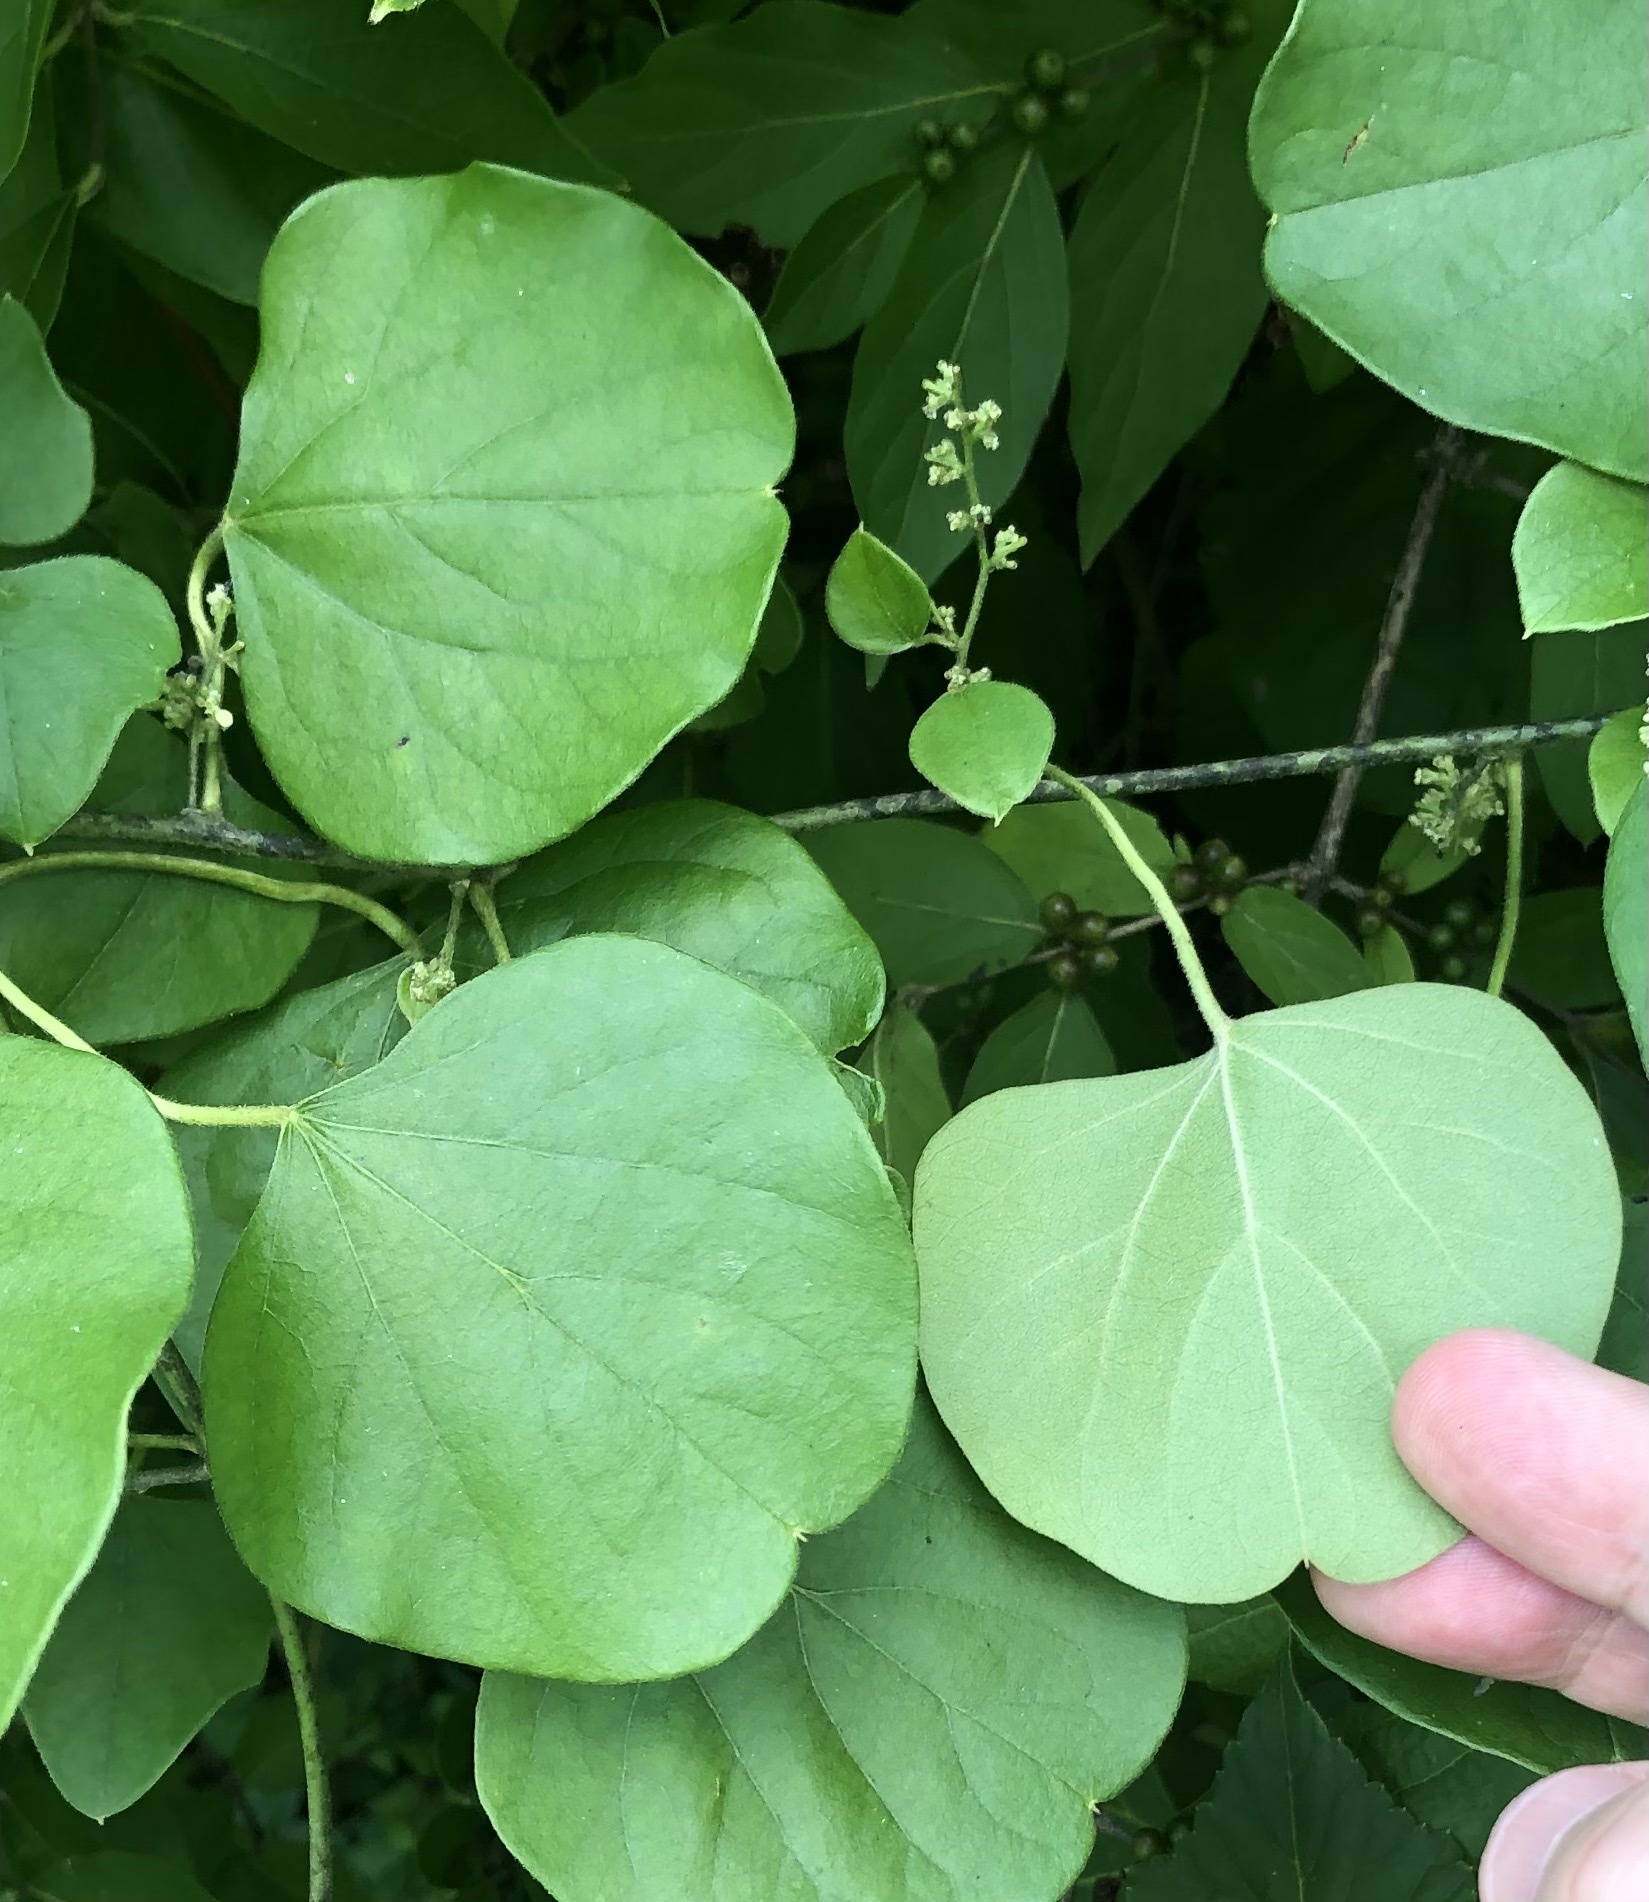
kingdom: Plantae
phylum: Tracheophyta
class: Magnoliopsida
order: Ranunculales
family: Menispermaceae
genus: Cocculus
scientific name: Cocculus carolinus
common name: Carolina moonseed
